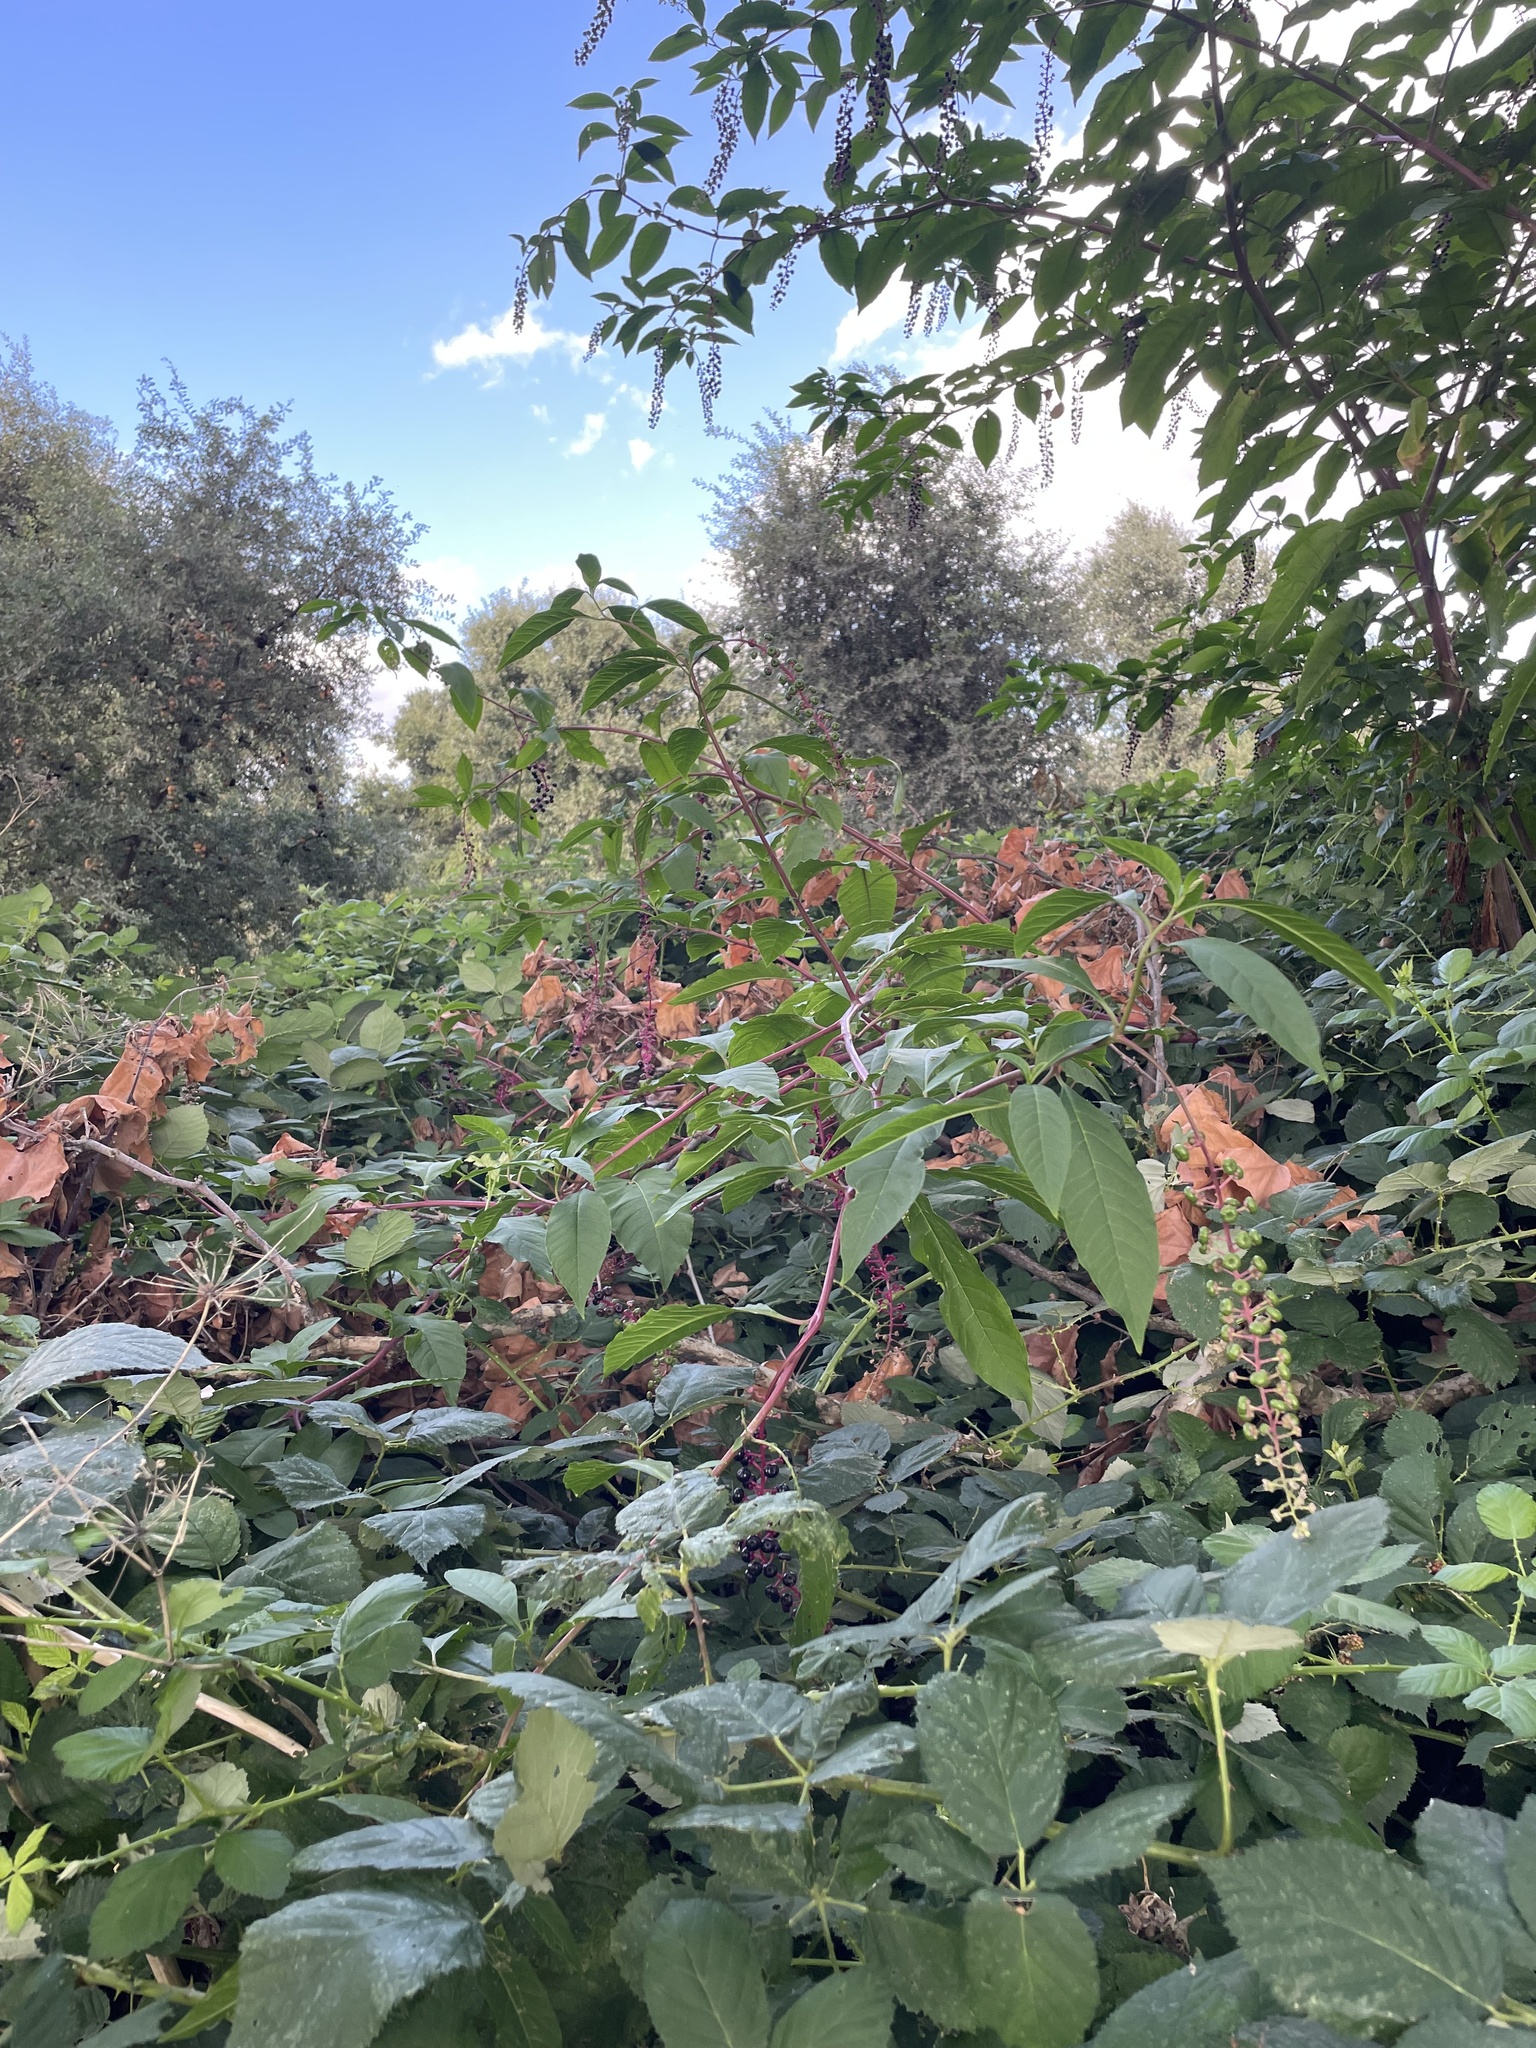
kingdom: Plantae
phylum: Tracheophyta
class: Magnoliopsida
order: Caryophyllales
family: Phytolaccaceae
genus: Phytolacca
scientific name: Phytolacca americana
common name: American pokeweed
